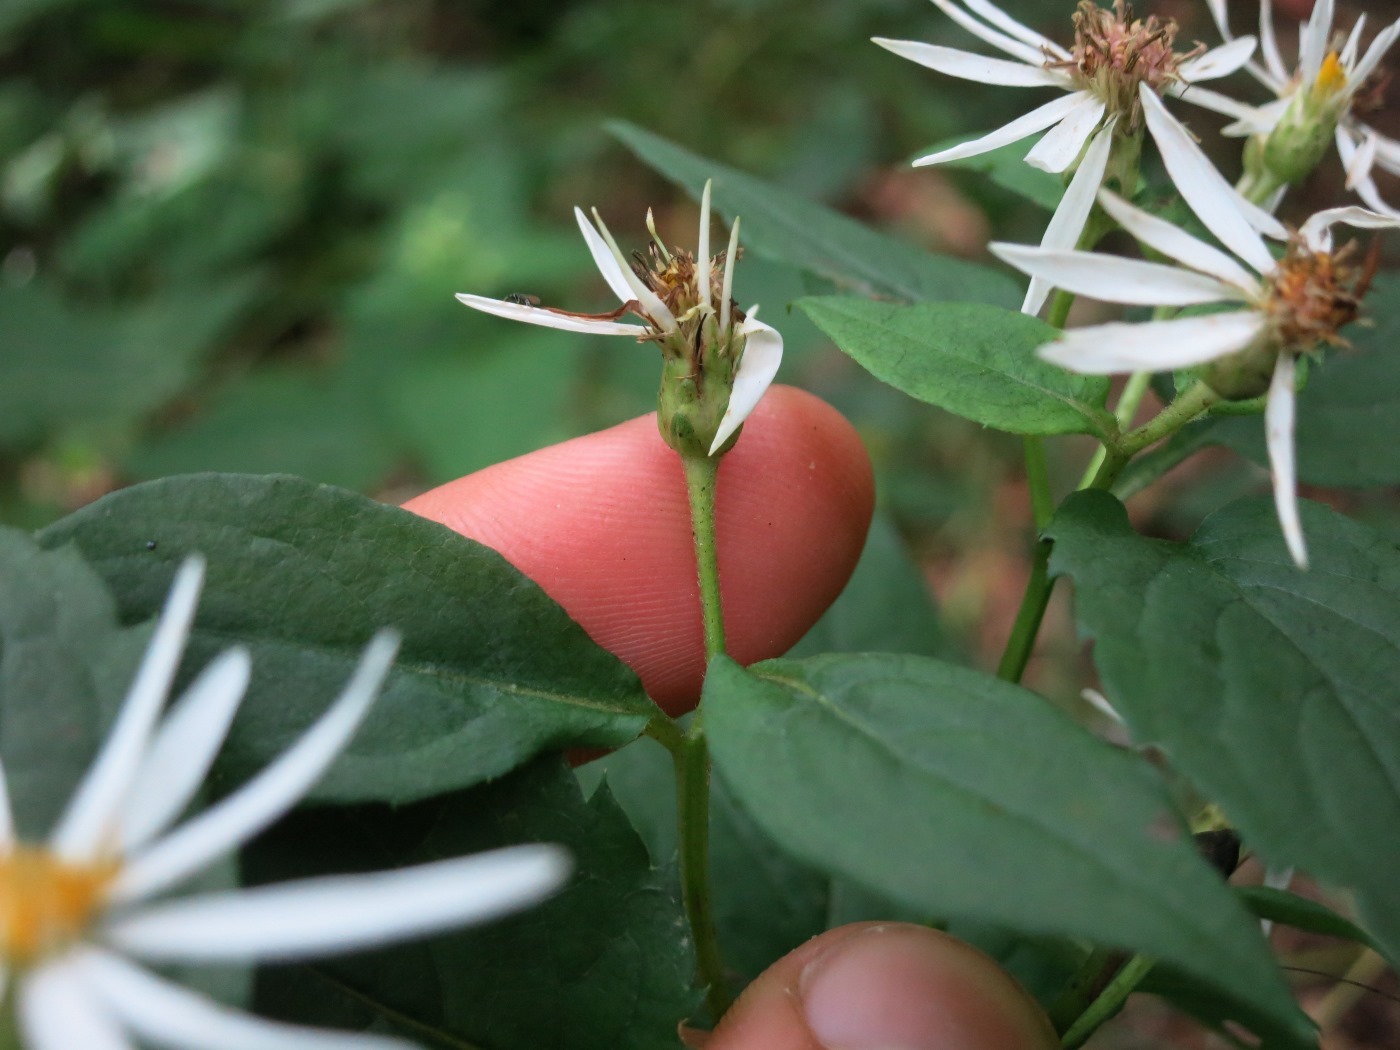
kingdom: Plantae
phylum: Tracheophyta
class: Magnoliopsida
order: Asterales
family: Asteraceae
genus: Eurybia
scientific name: Eurybia divaricata
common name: White wood aster
